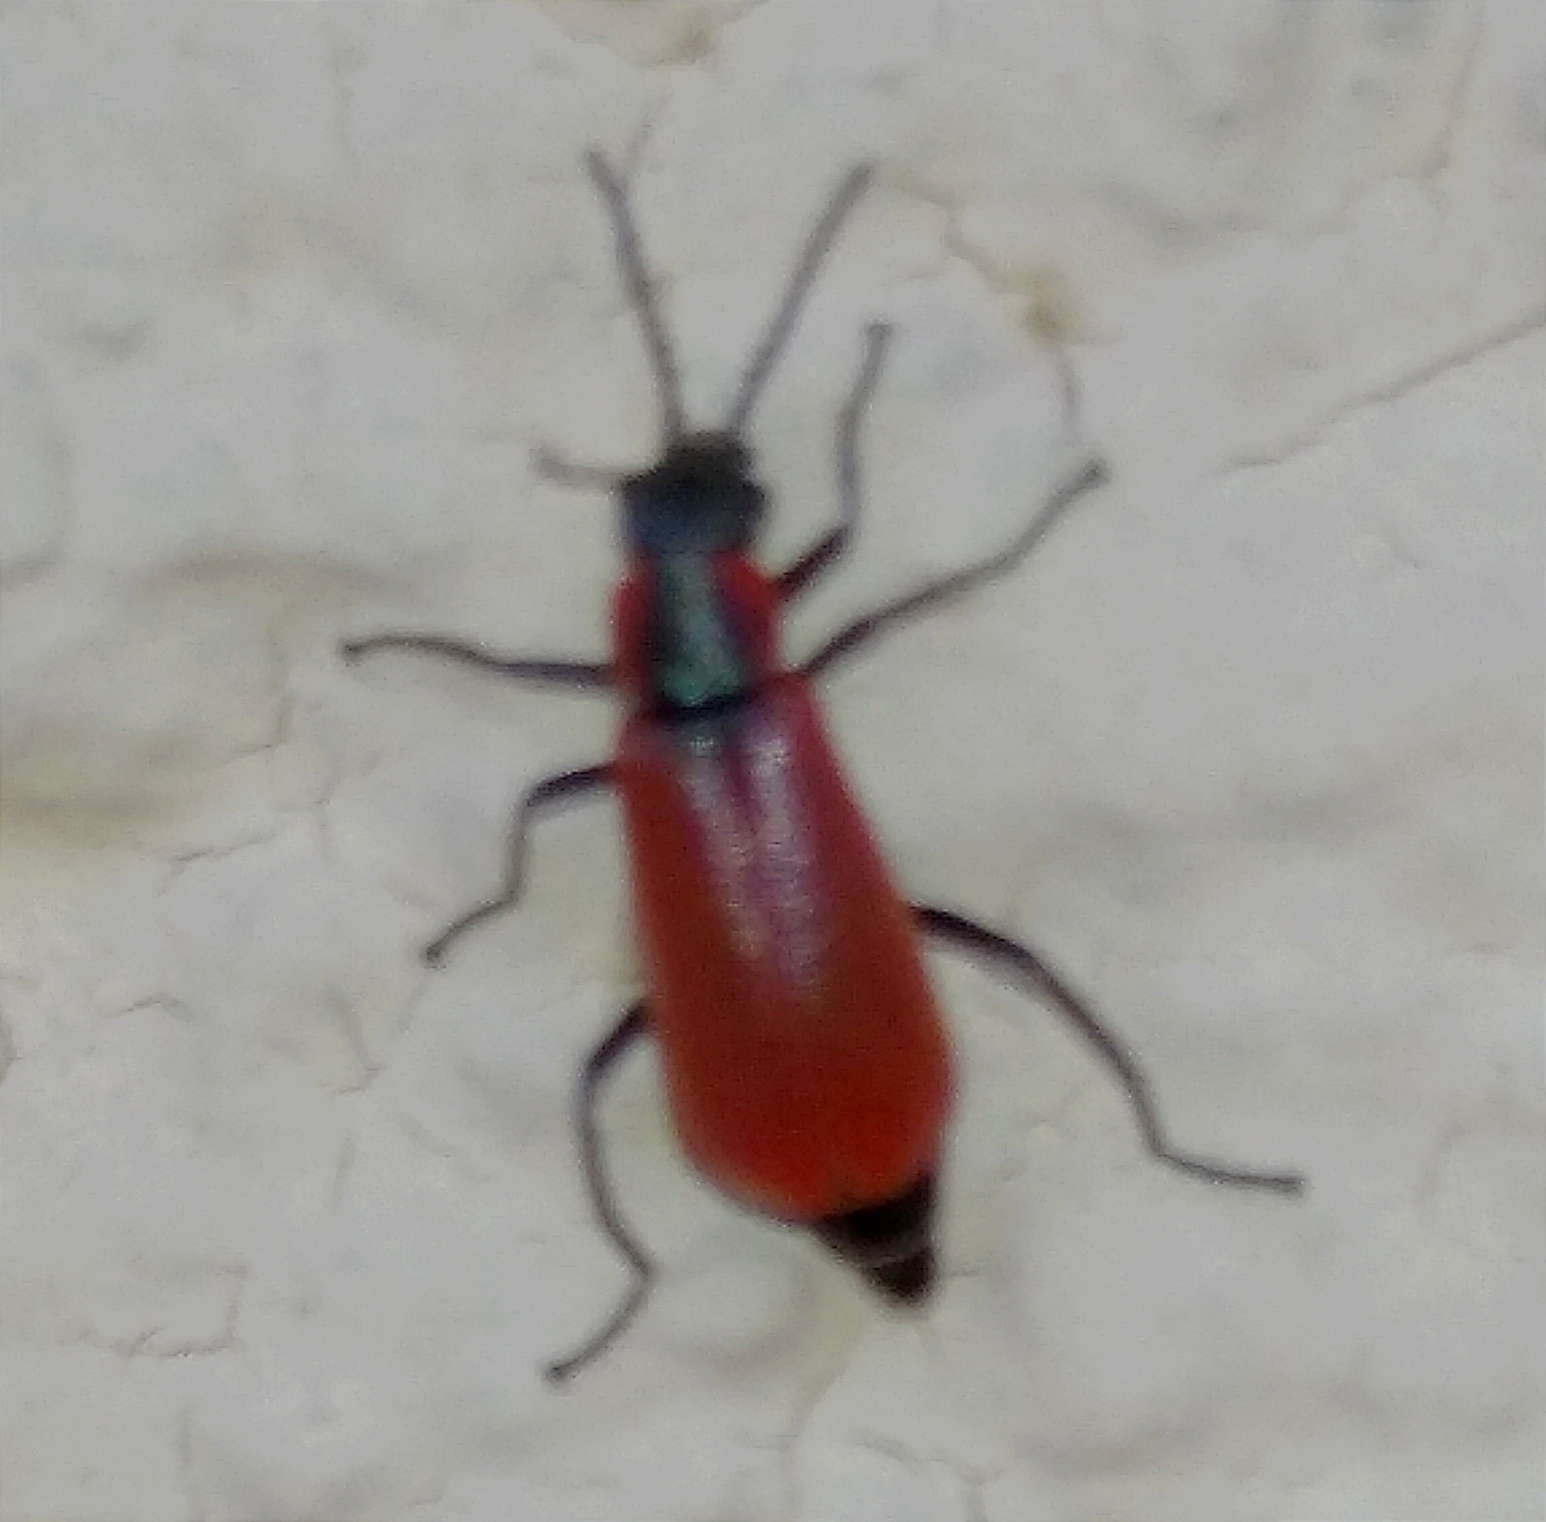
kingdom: Animalia
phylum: Arthropoda
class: Insecta
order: Coleoptera
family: Melyridae
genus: Anthocomus
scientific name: Anthocomus rufus
